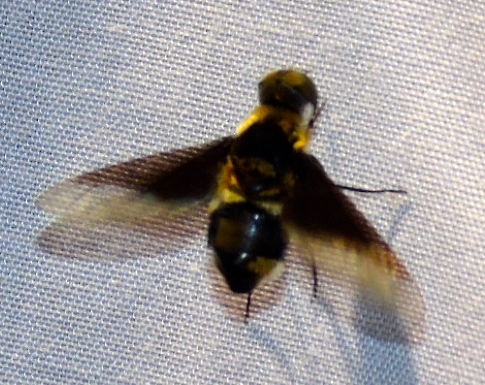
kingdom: Animalia
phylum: Arthropoda
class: Insecta
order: Diptera
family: Bombyliidae
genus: Hemipenthes
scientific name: Hemipenthes
